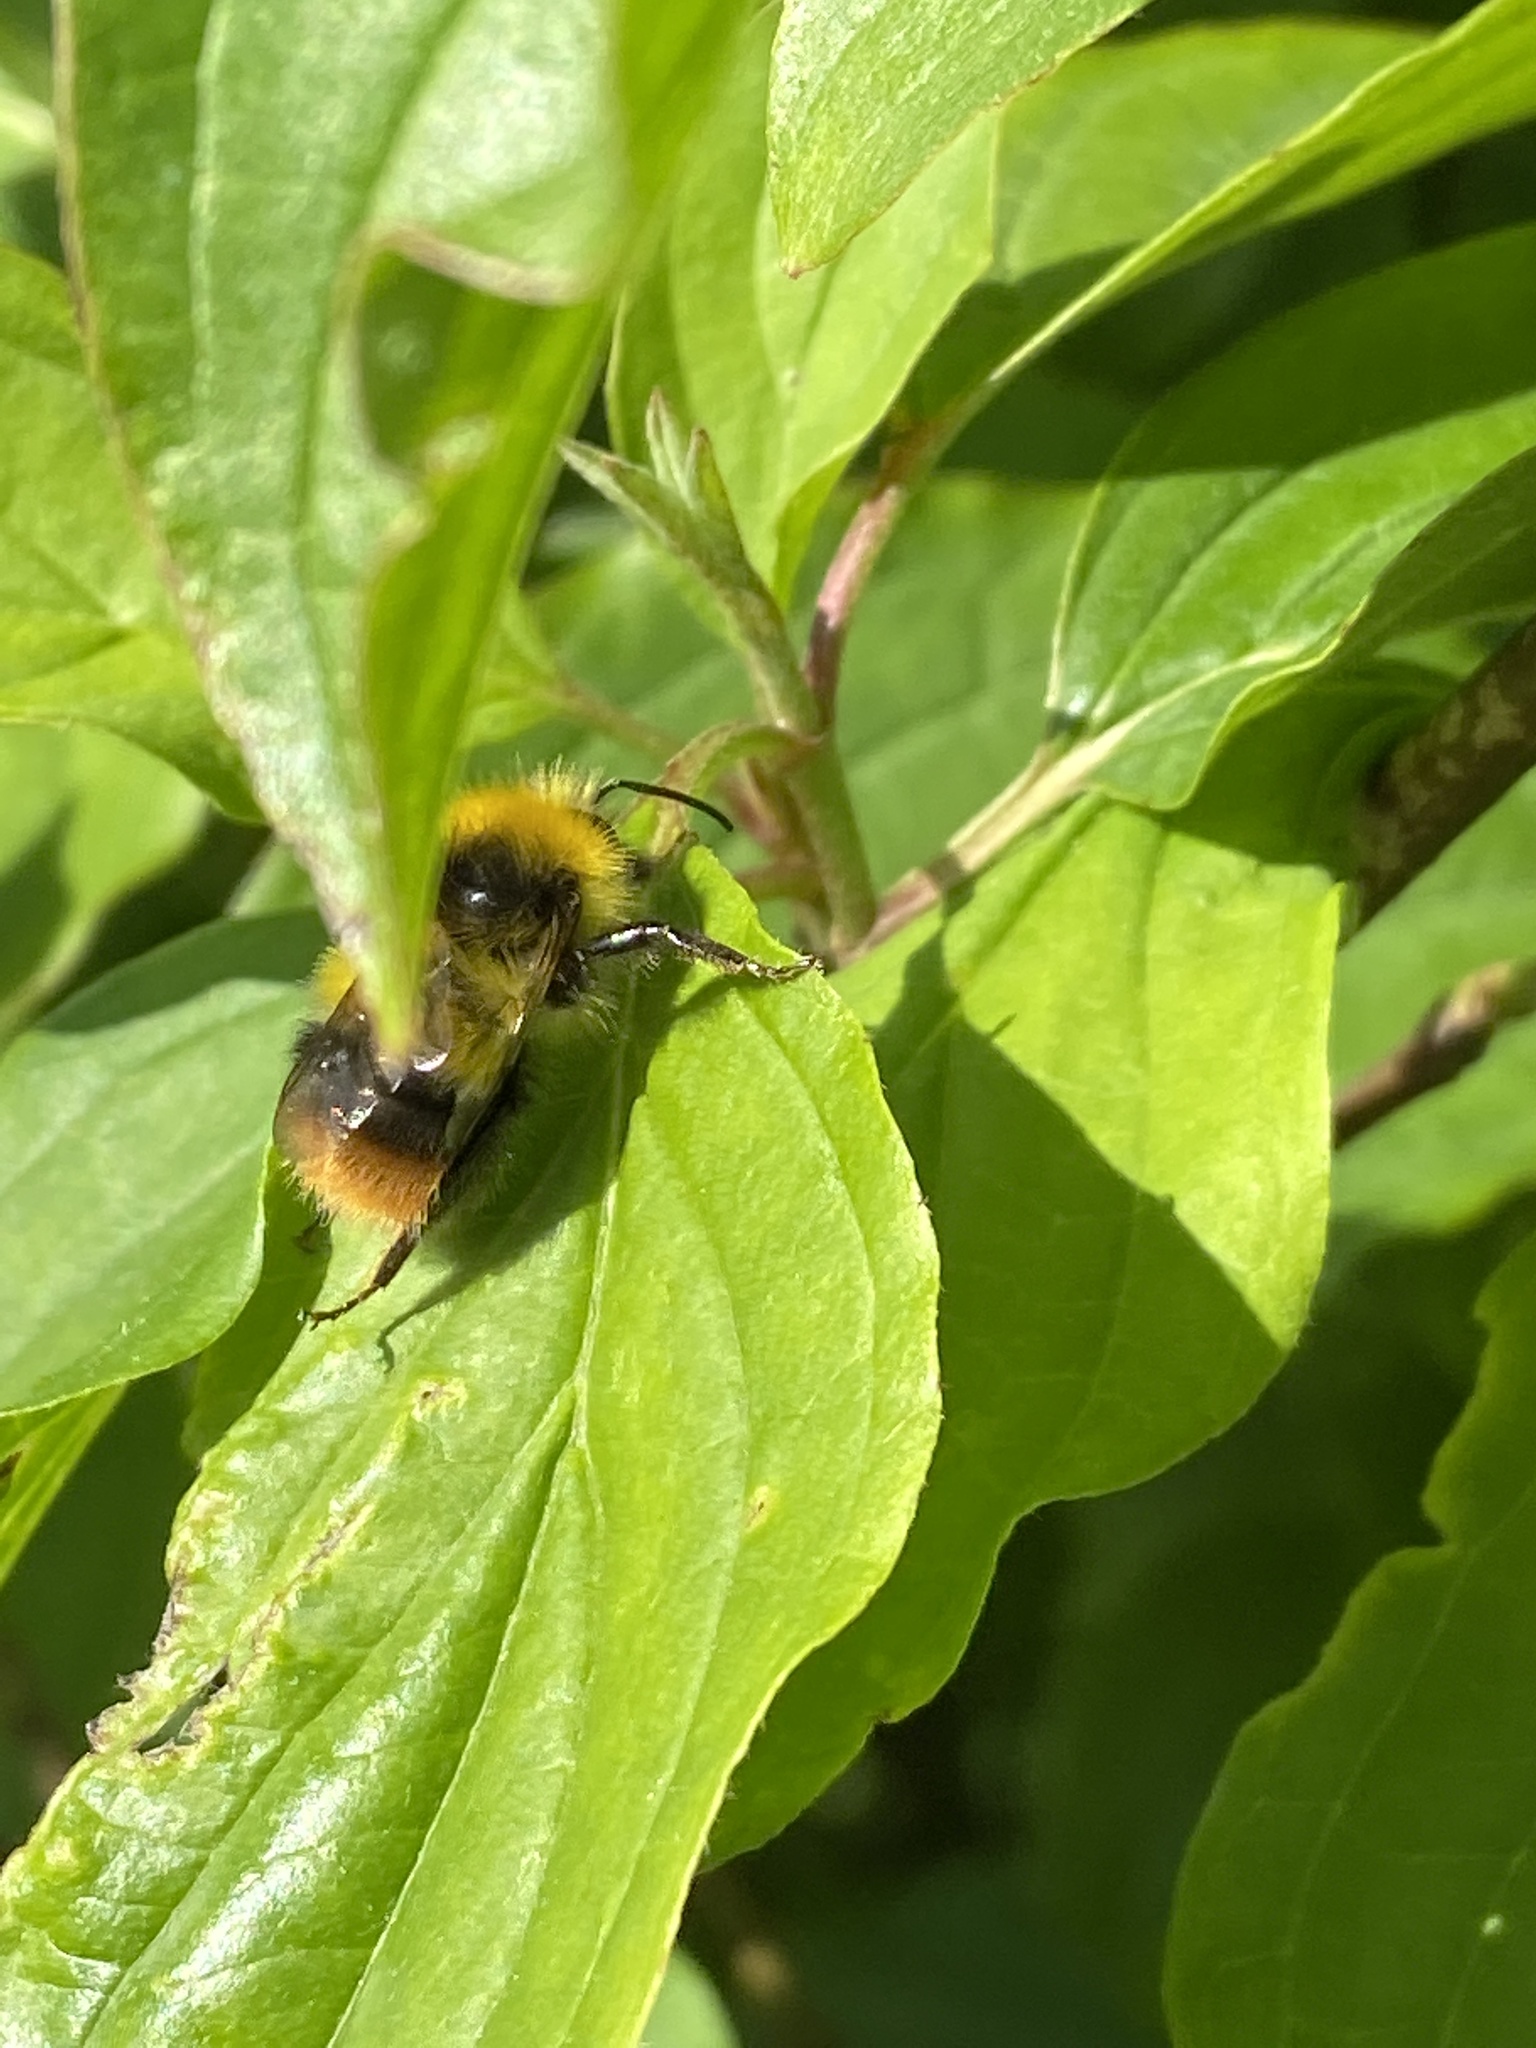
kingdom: Animalia
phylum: Arthropoda
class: Insecta
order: Hymenoptera
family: Apidae
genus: Bombus
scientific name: Bombus pratorum
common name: Early humble-bee
